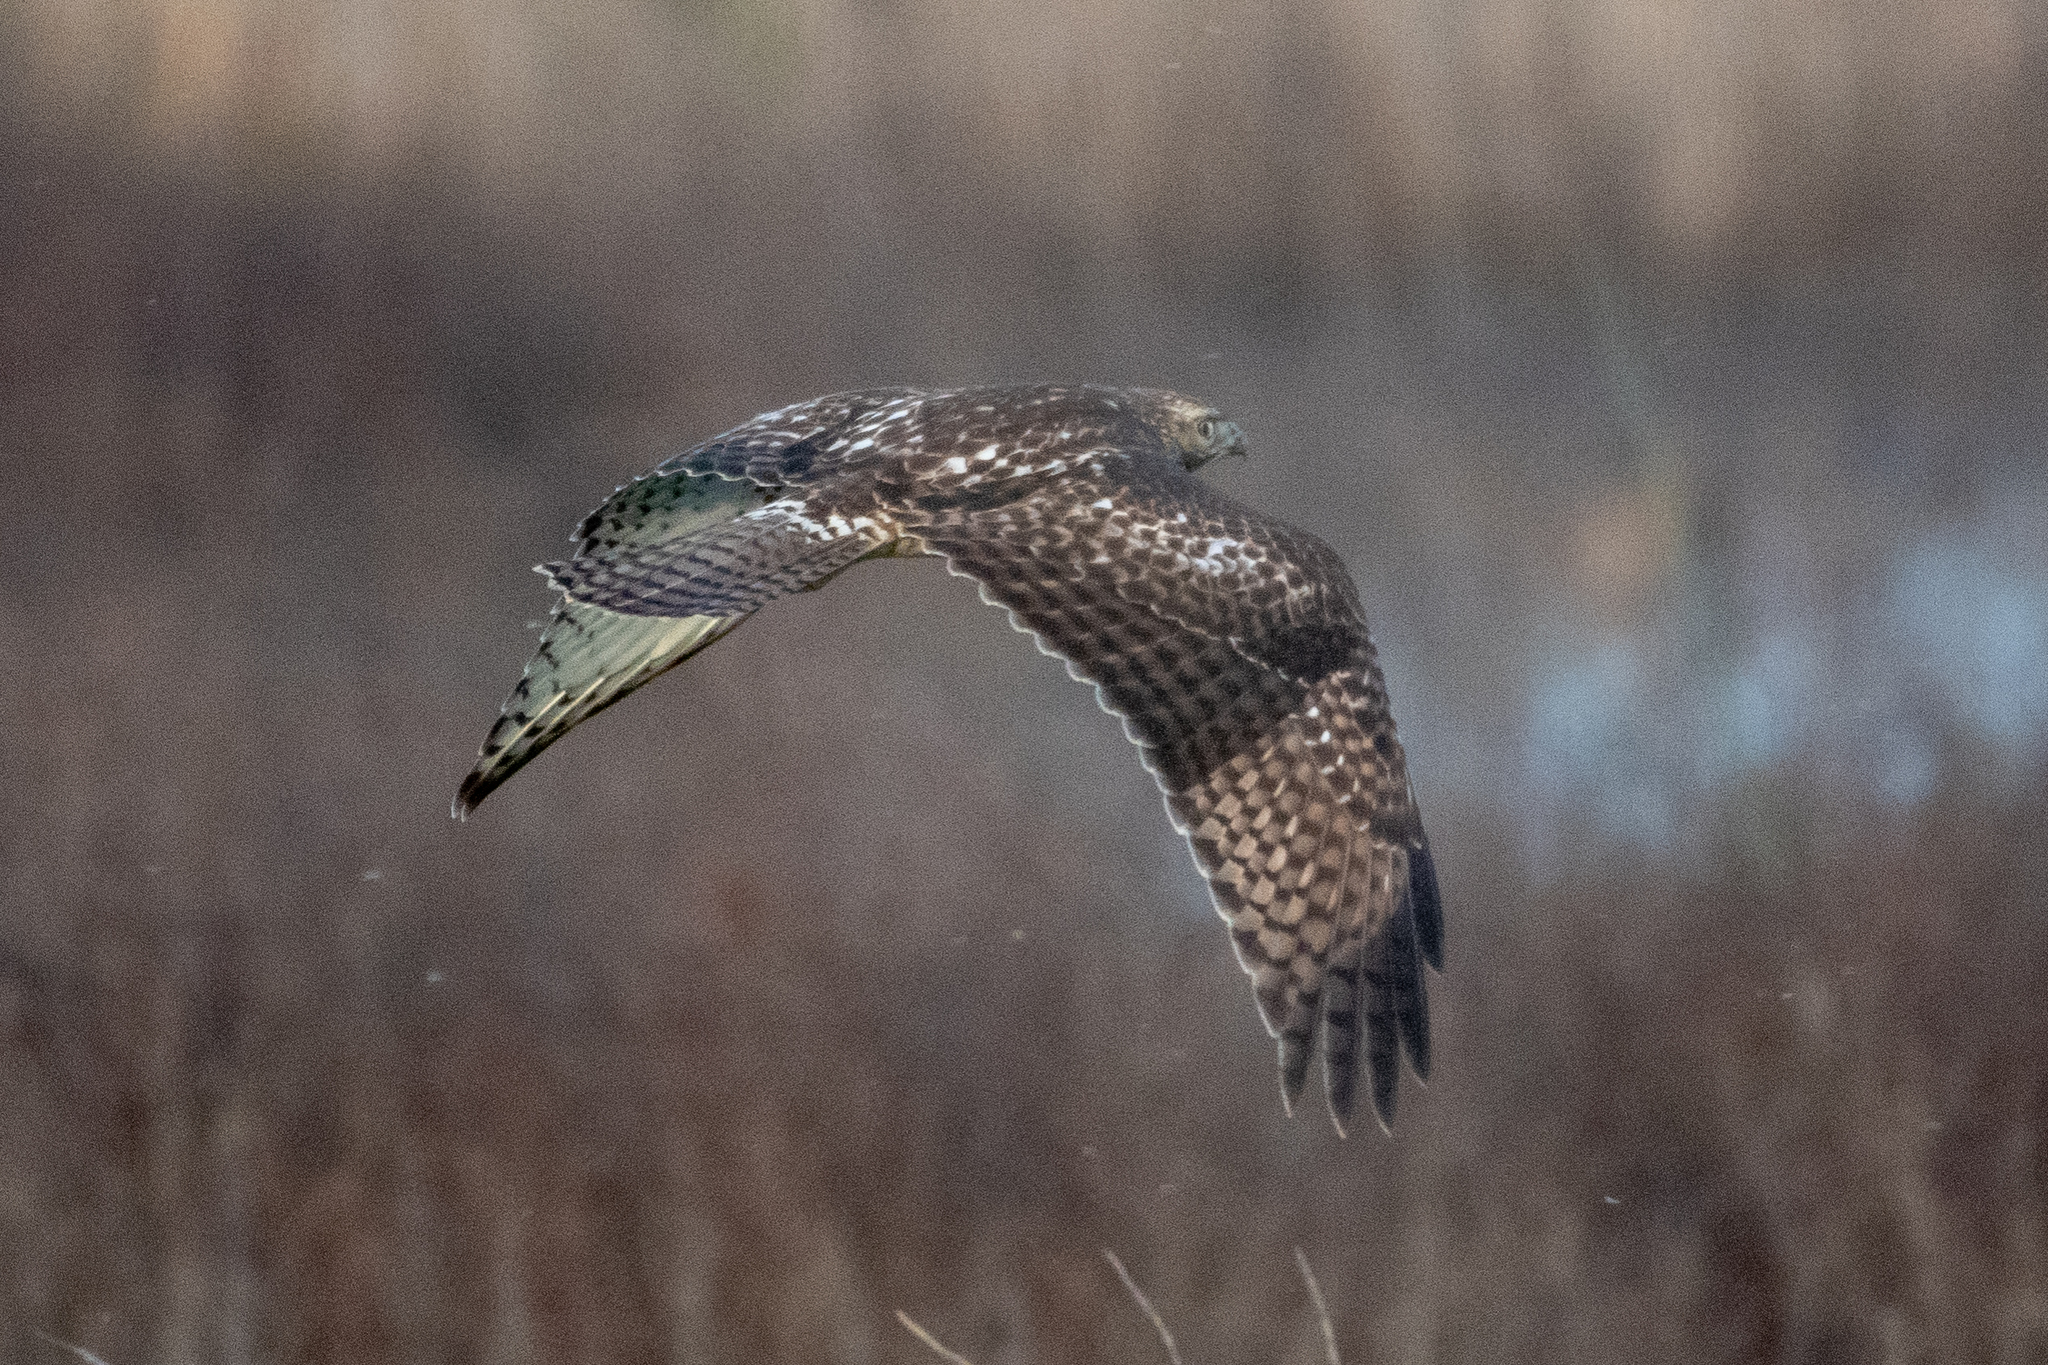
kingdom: Animalia
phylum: Chordata
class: Aves
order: Accipitriformes
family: Accipitridae
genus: Buteo
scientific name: Buteo jamaicensis
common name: Red-tailed hawk
